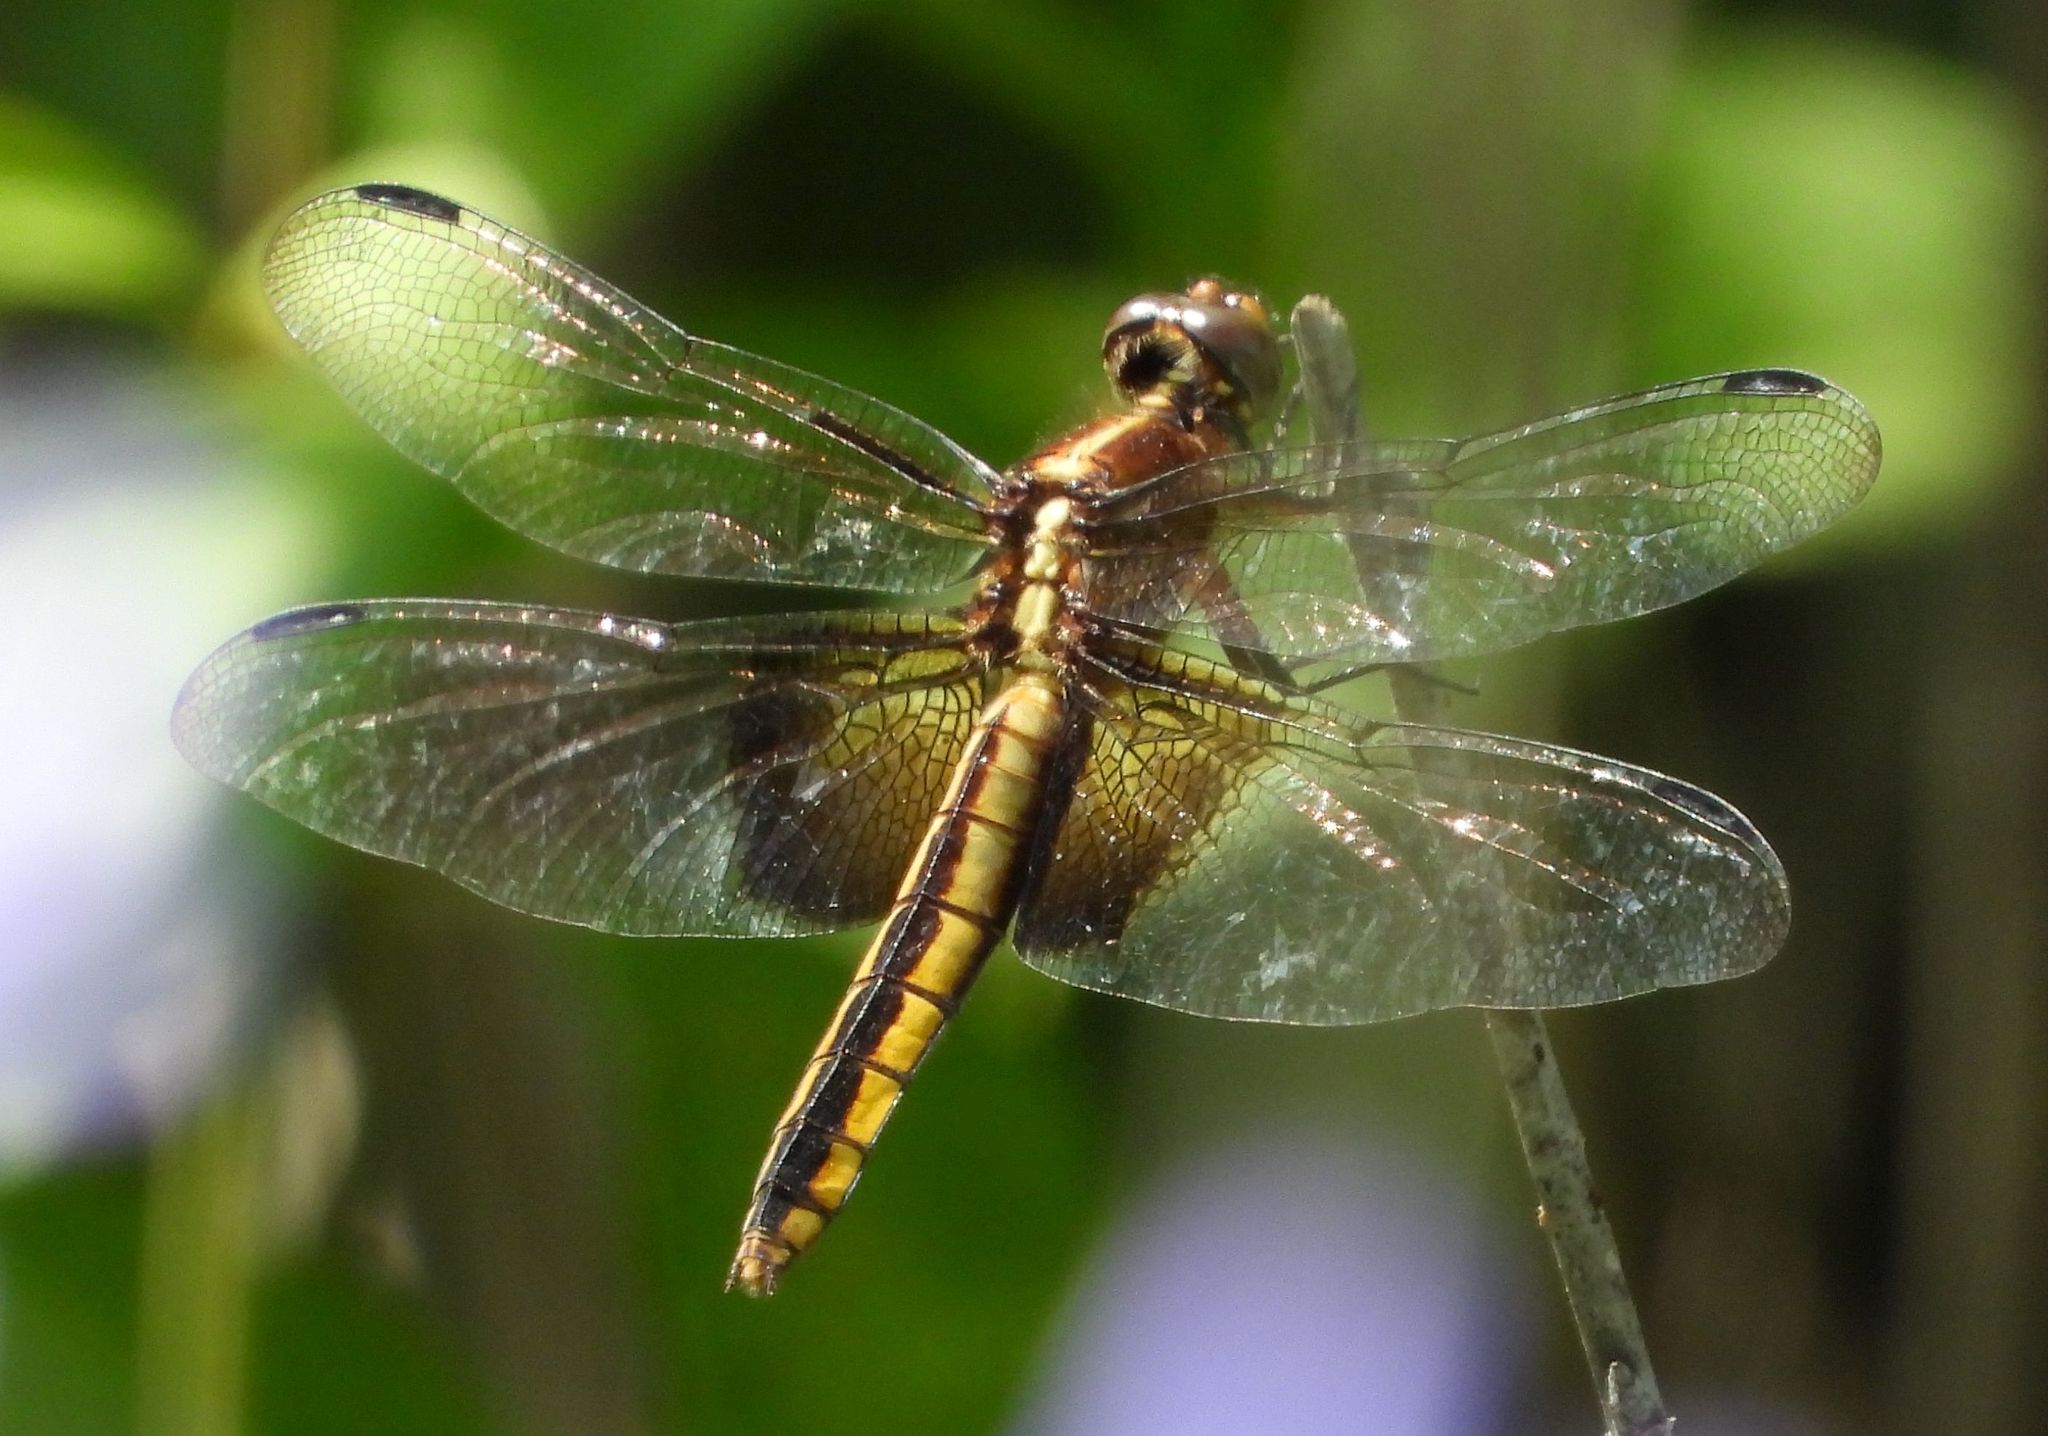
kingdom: Animalia
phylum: Arthropoda
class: Insecta
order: Odonata
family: Libellulidae
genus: Libellula
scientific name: Libellula luctuosa
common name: Widow skimmer
